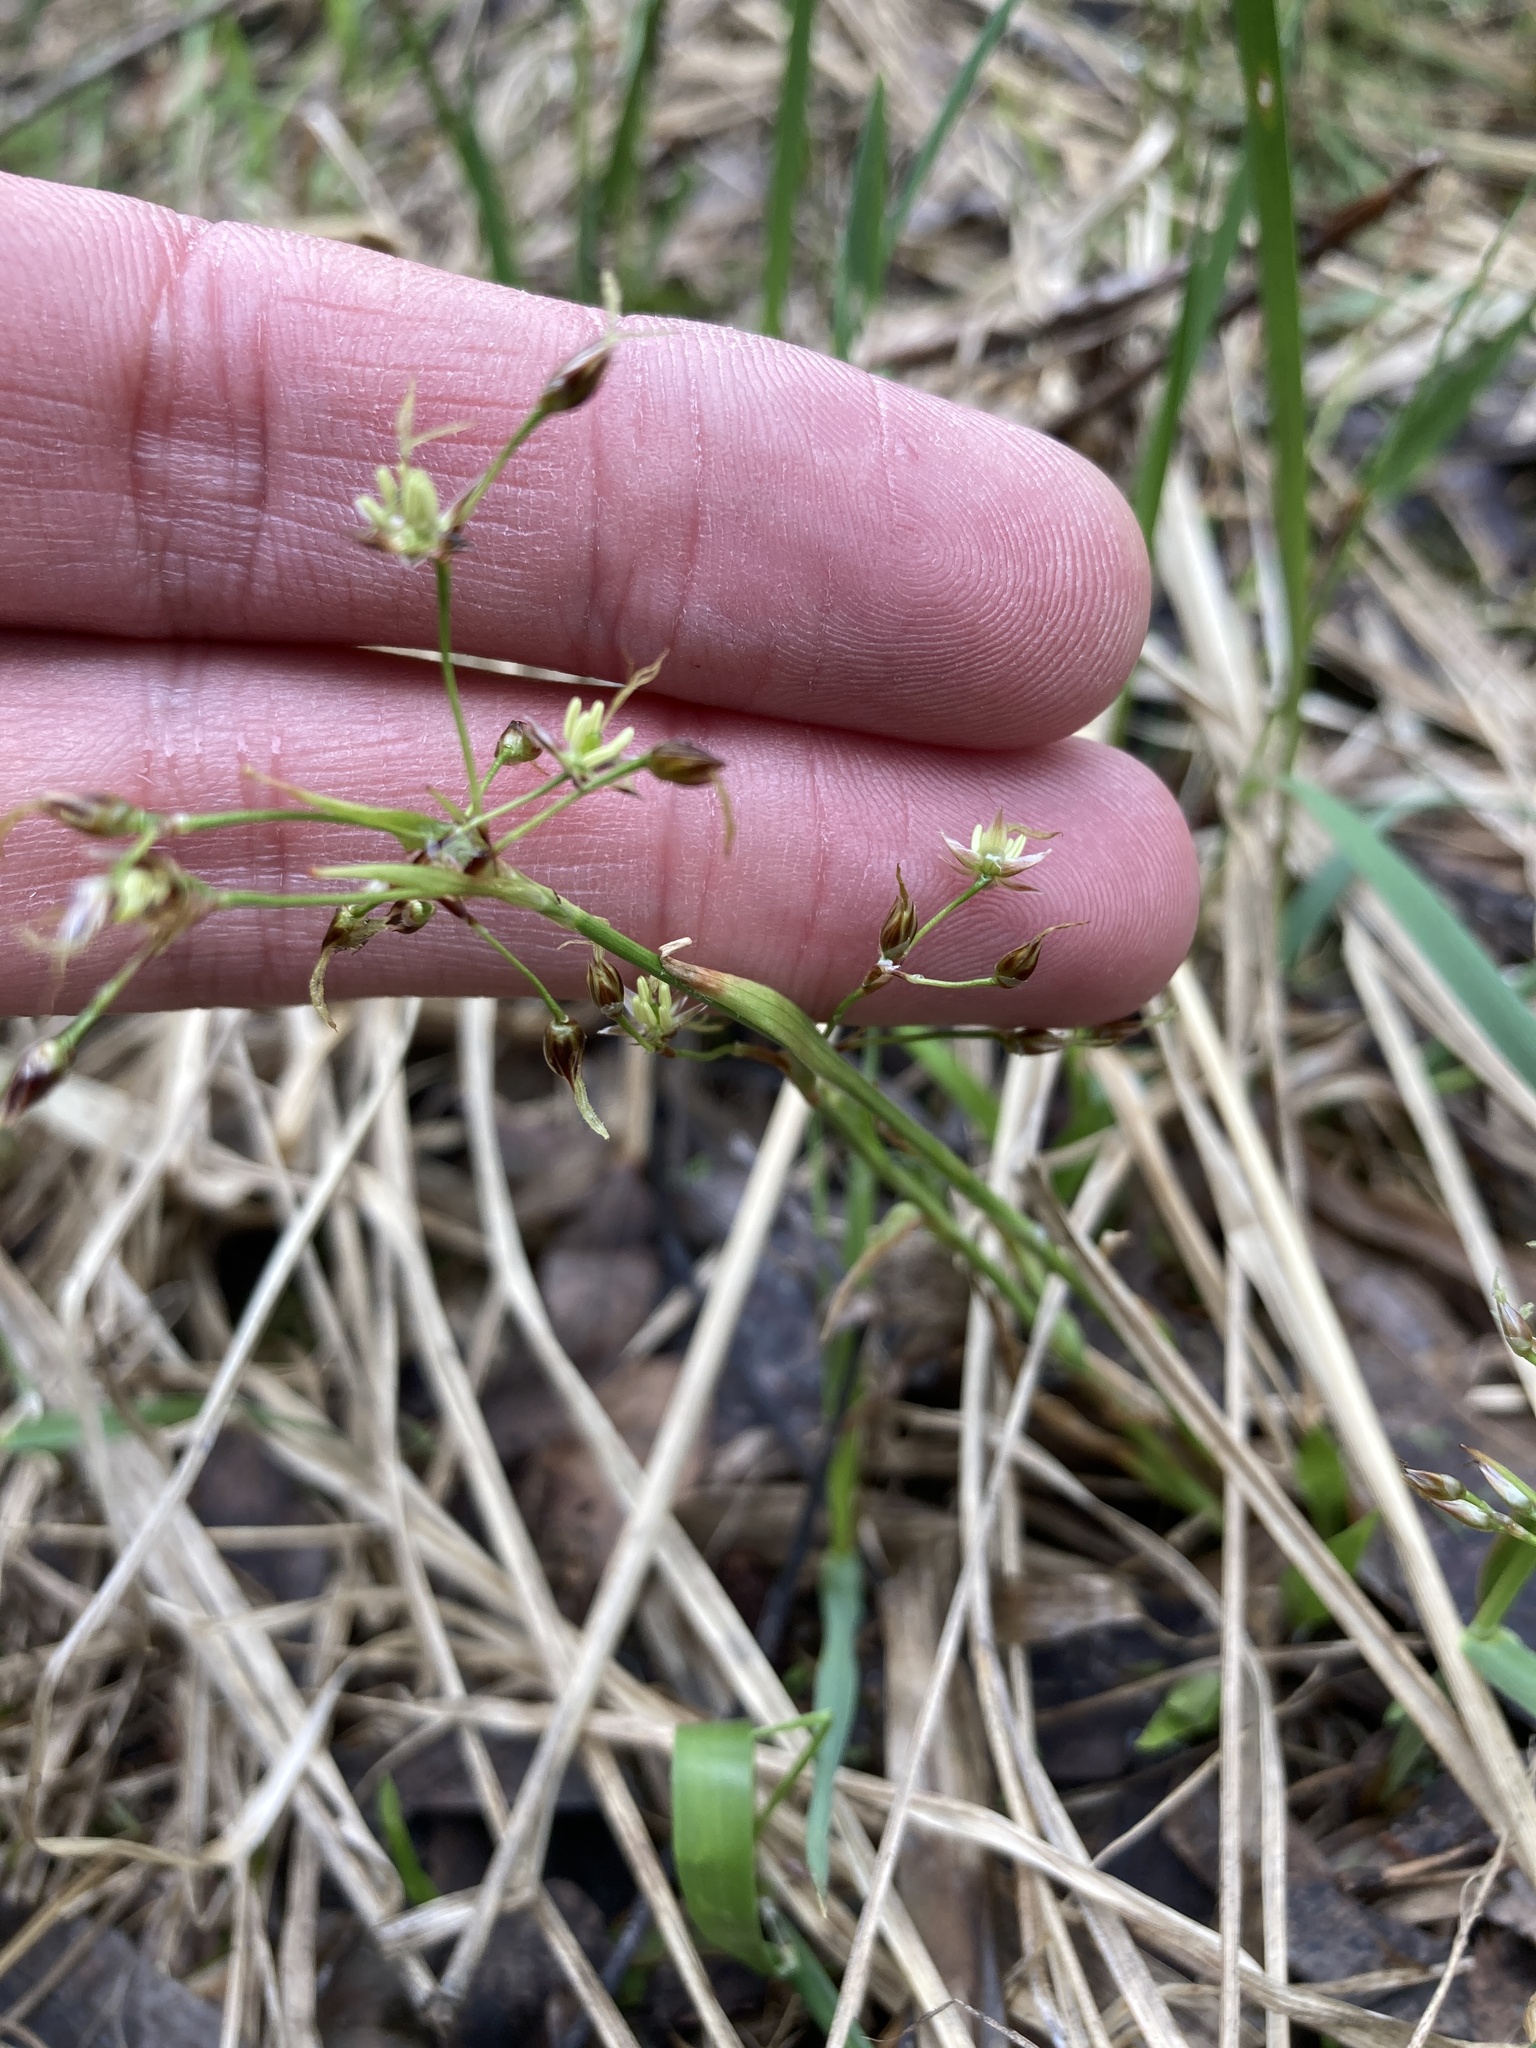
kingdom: Plantae
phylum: Tracheophyta
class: Liliopsida
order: Poales
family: Juncaceae
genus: Luzula
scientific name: Luzula pilosa
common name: Hairy wood-rush
